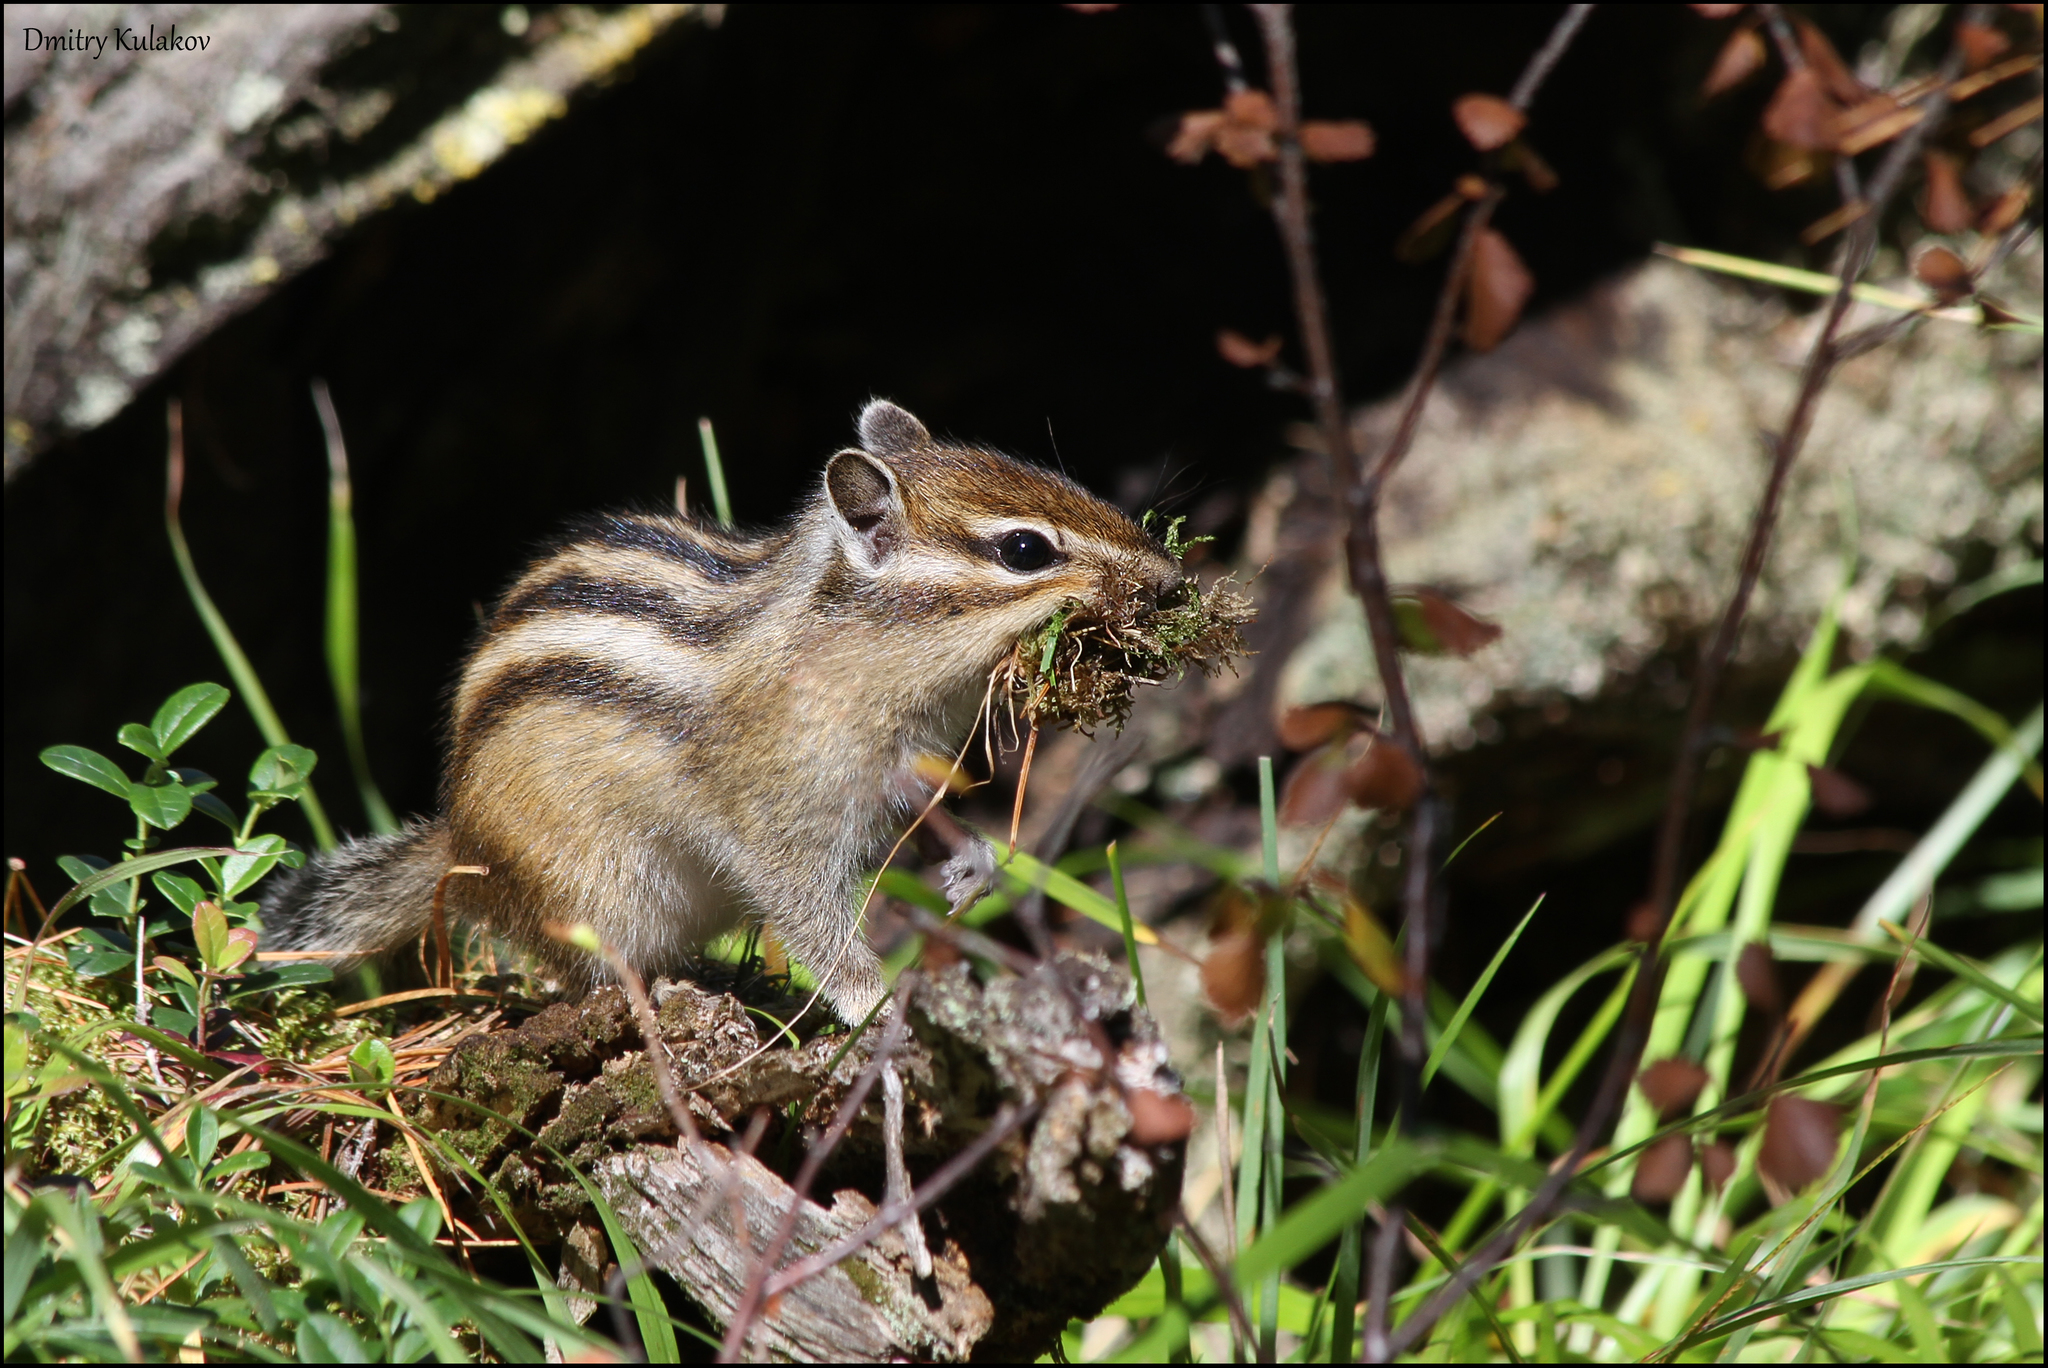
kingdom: Animalia
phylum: Chordata
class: Mammalia
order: Rodentia
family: Sciuridae
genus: Tamias
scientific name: Tamias sibiricus
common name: Siberian chipmunk
